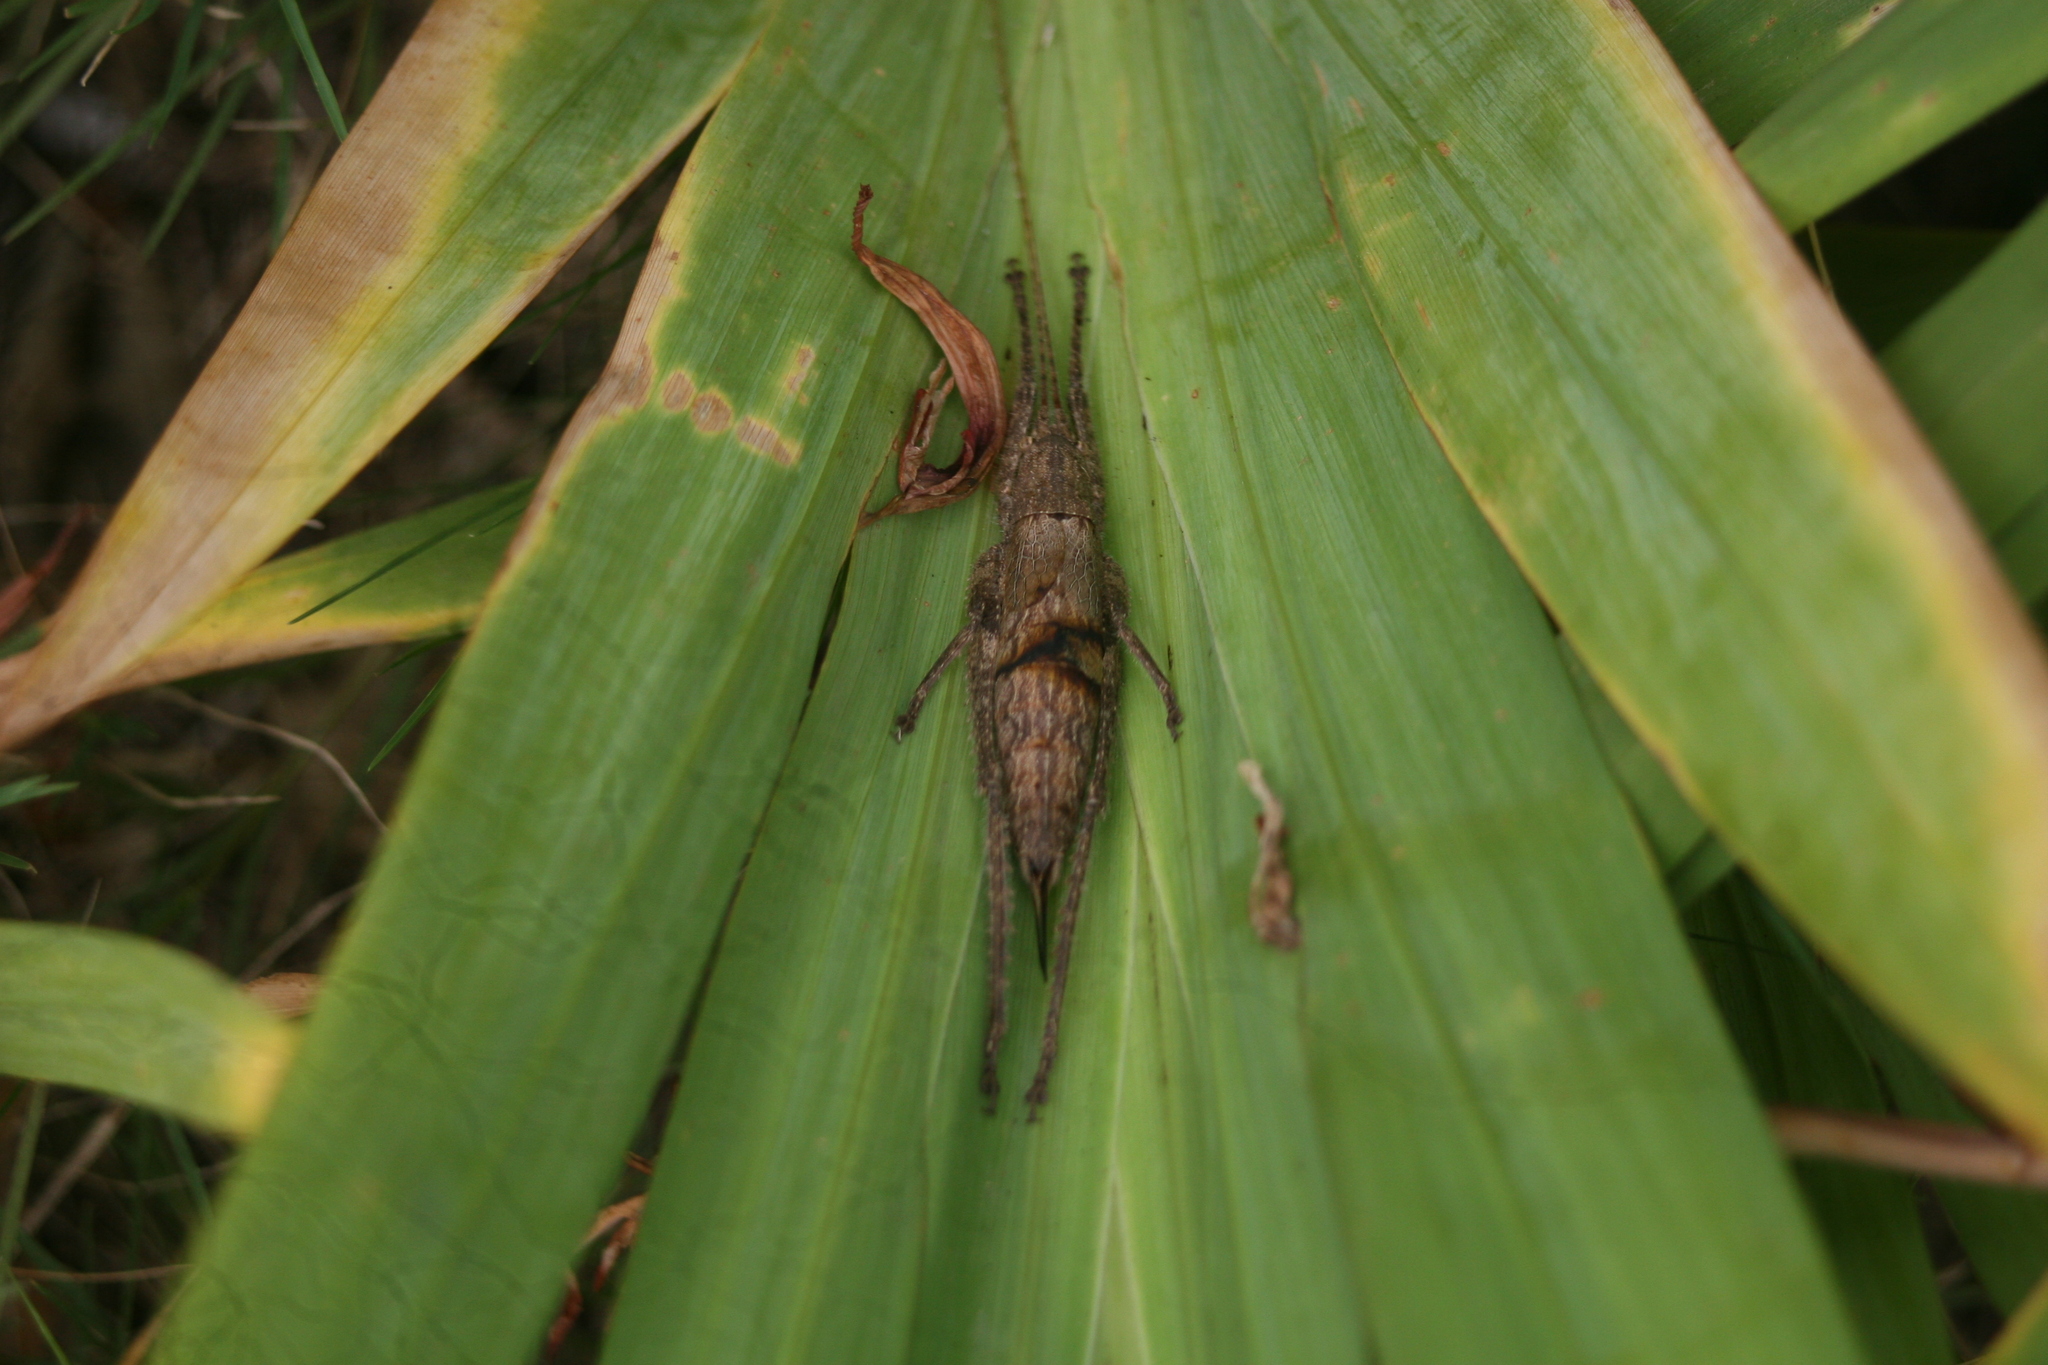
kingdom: Animalia
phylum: Arthropoda
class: Insecta
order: Orthoptera
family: Tettigoniidae
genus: Dasyscelus
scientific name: Dasyscelus normalis
